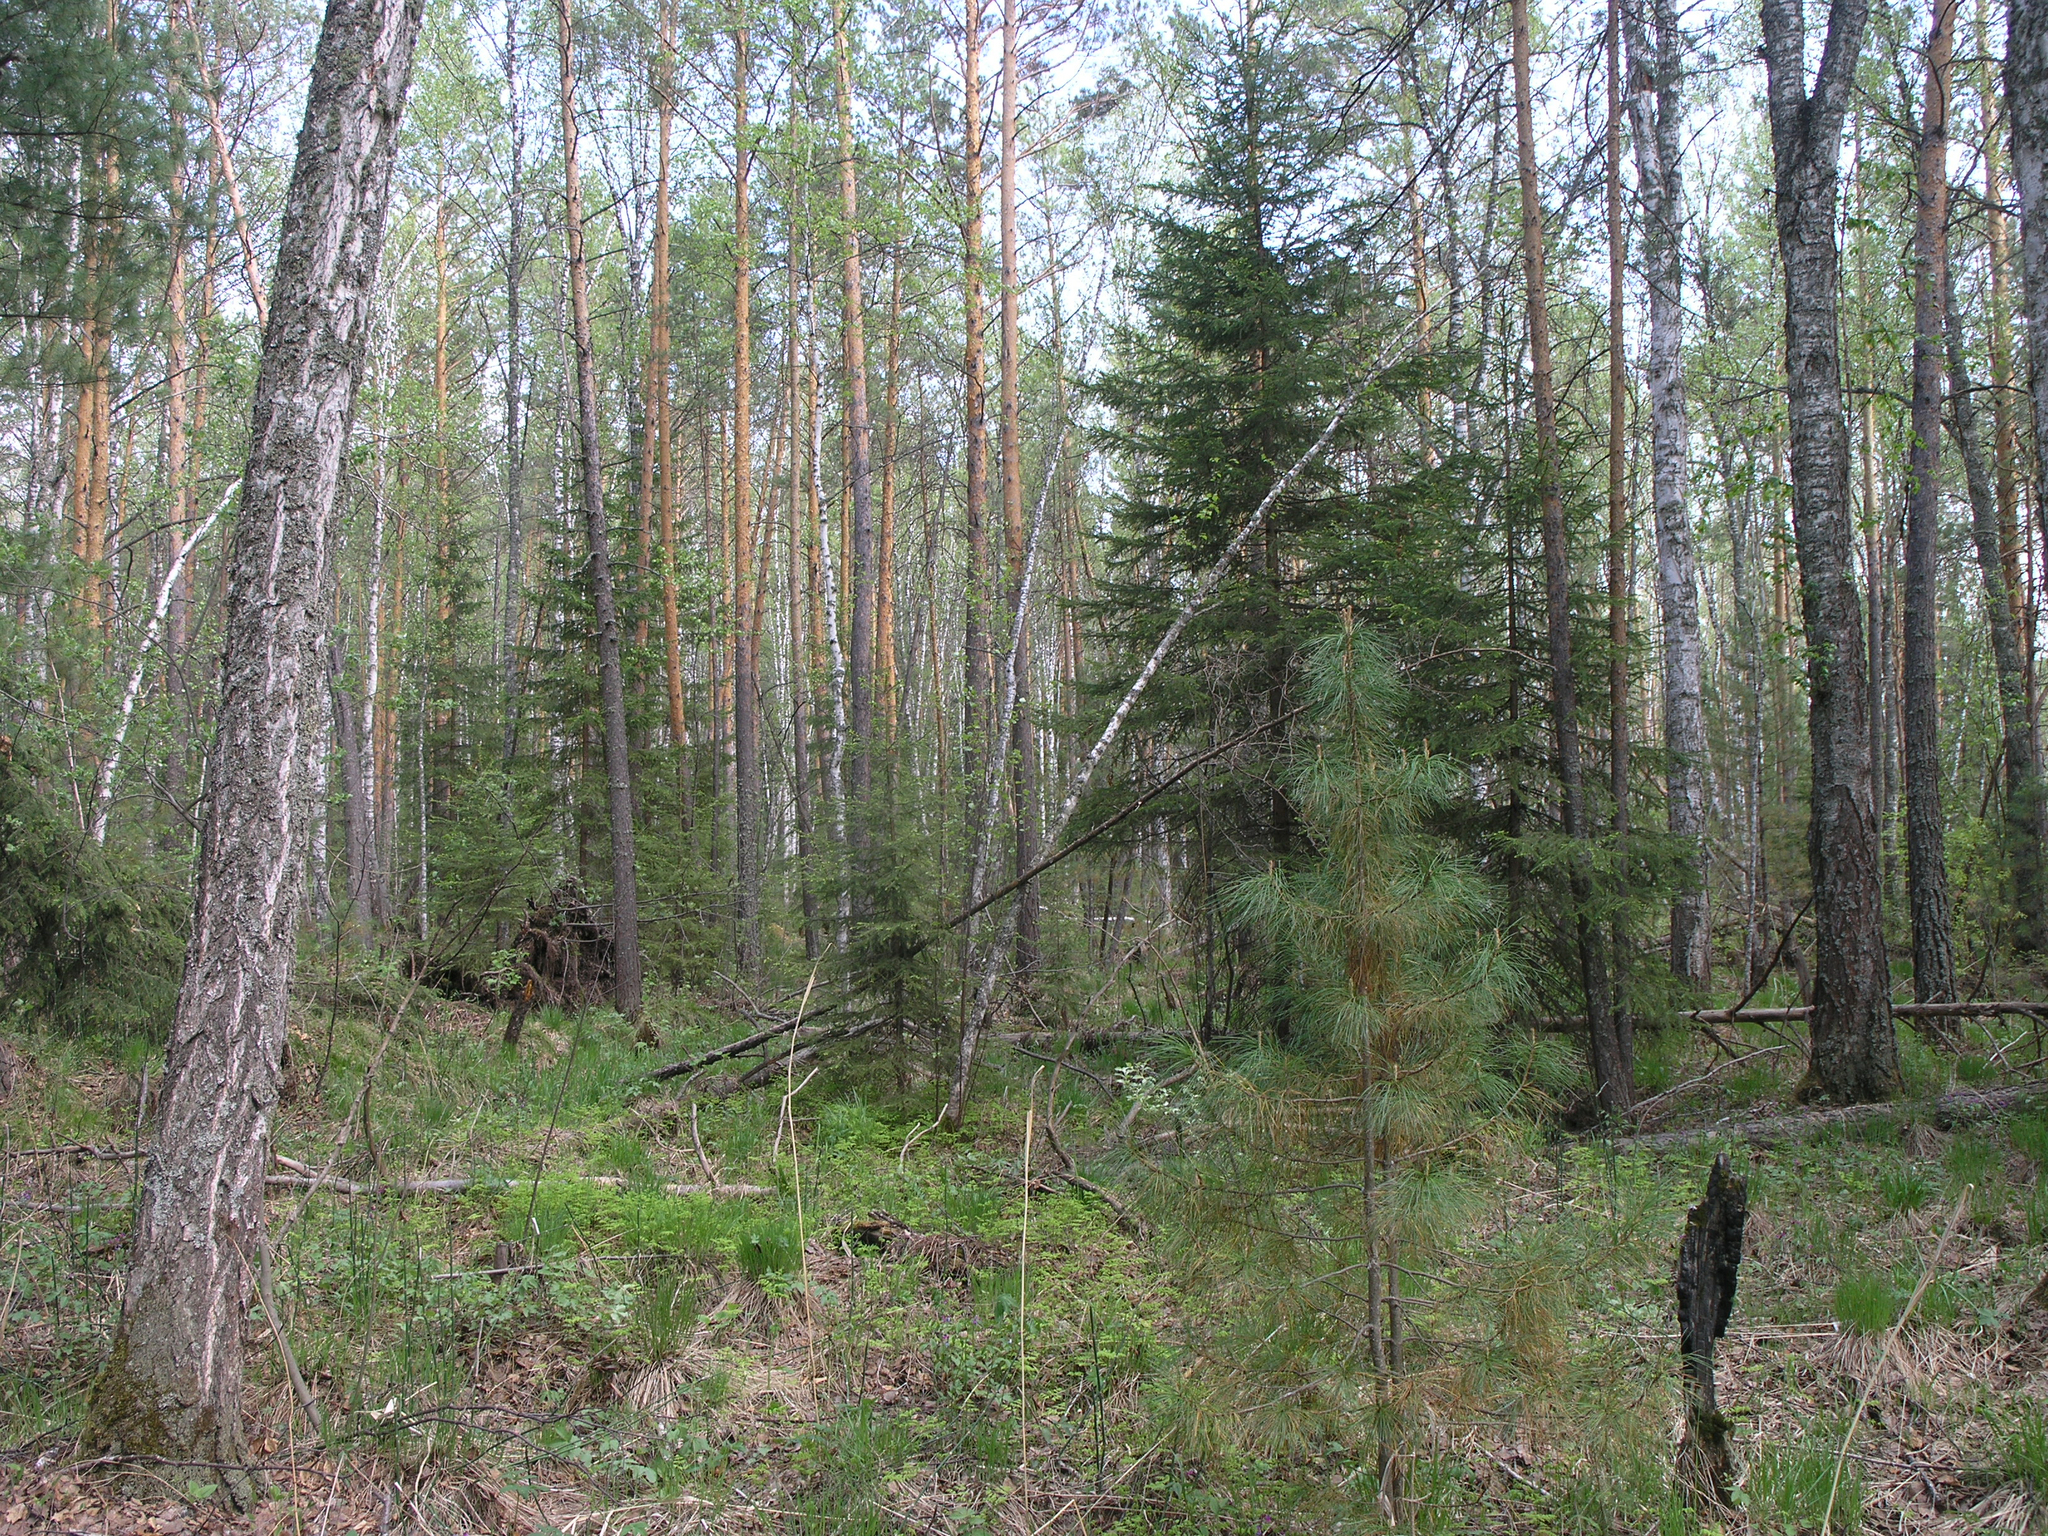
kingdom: Plantae
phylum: Tracheophyta
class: Pinopsida
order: Pinales
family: Pinaceae
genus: Pinus
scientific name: Pinus sylvestris
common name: Scots pine
